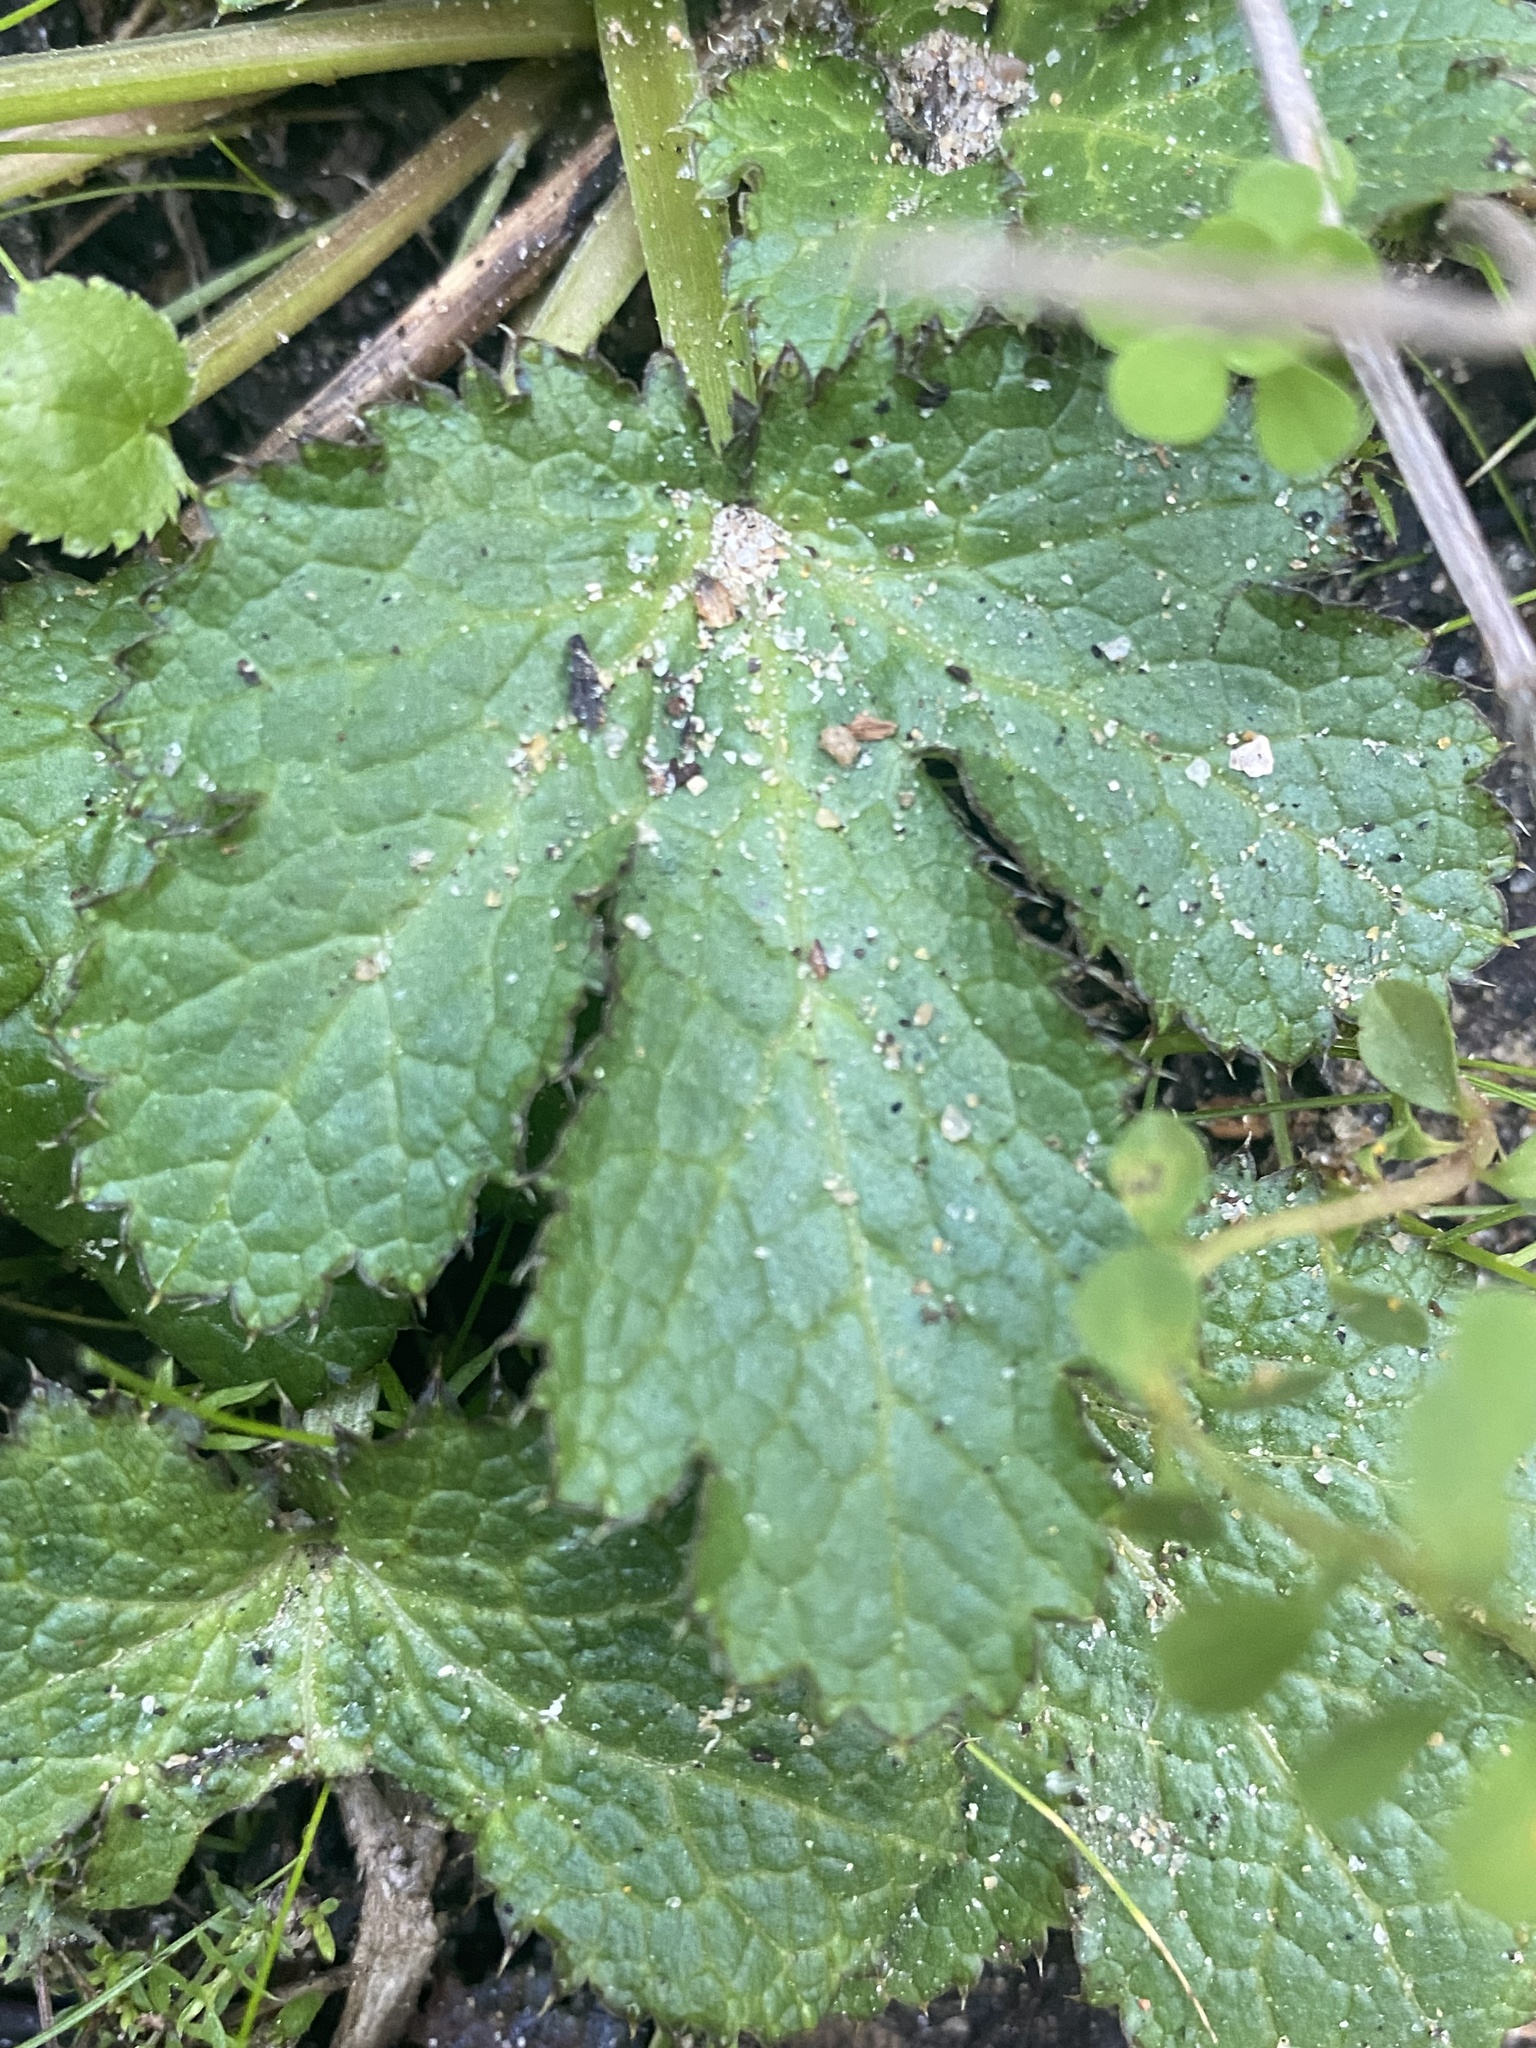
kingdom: Plantae
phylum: Tracheophyta
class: Magnoliopsida
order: Apiales
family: Apiaceae
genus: Sanicula
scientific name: Sanicula crassicaulis
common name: Western snakeroot
